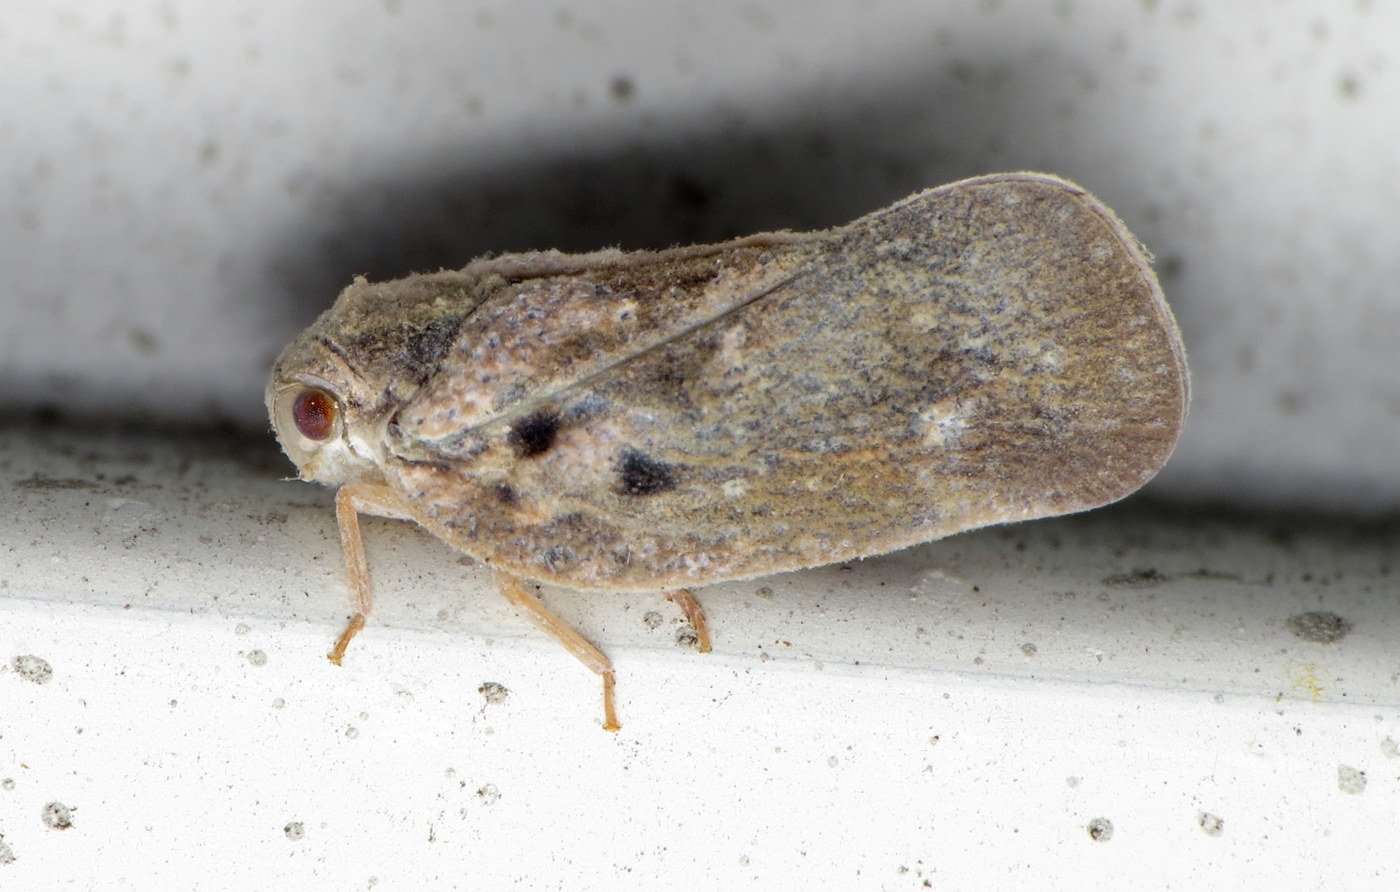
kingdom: Animalia
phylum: Arthropoda
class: Insecta
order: Hemiptera
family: Flatidae
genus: Metcalfa
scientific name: Metcalfa pruinosa
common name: Citrus flatid planthopper
